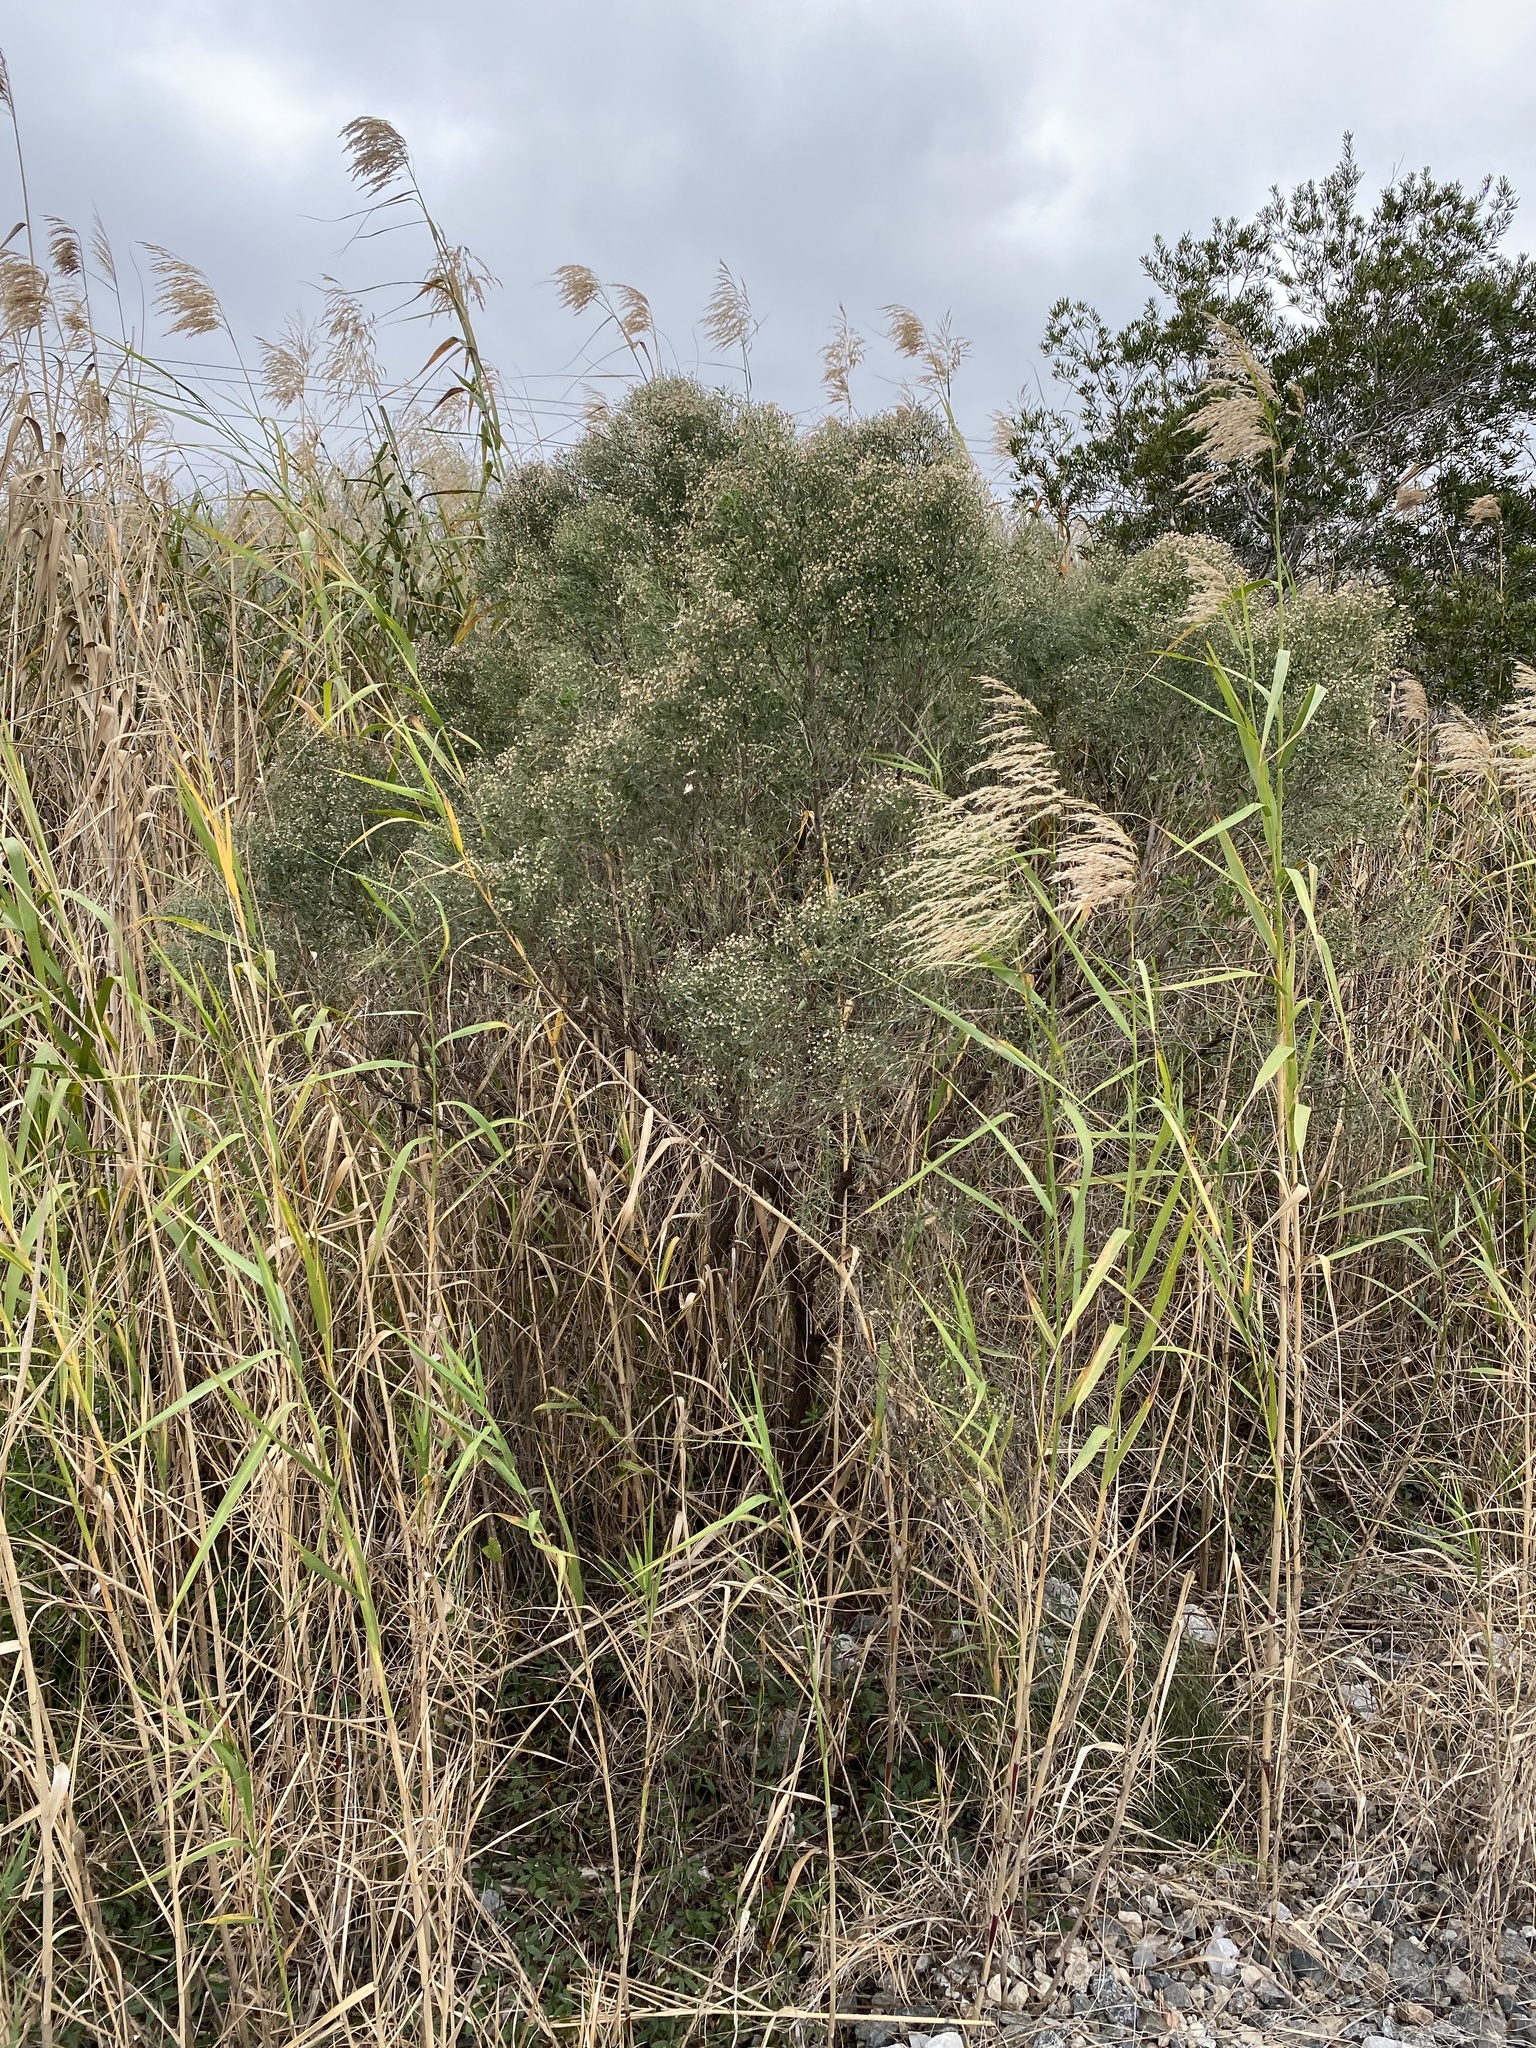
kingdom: Plantae
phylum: Tracheophyta
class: Magnoliopsida
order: Asterales
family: Asteraceae
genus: Baccharis
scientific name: Baccharis halimifolia
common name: Eastern baccharis
